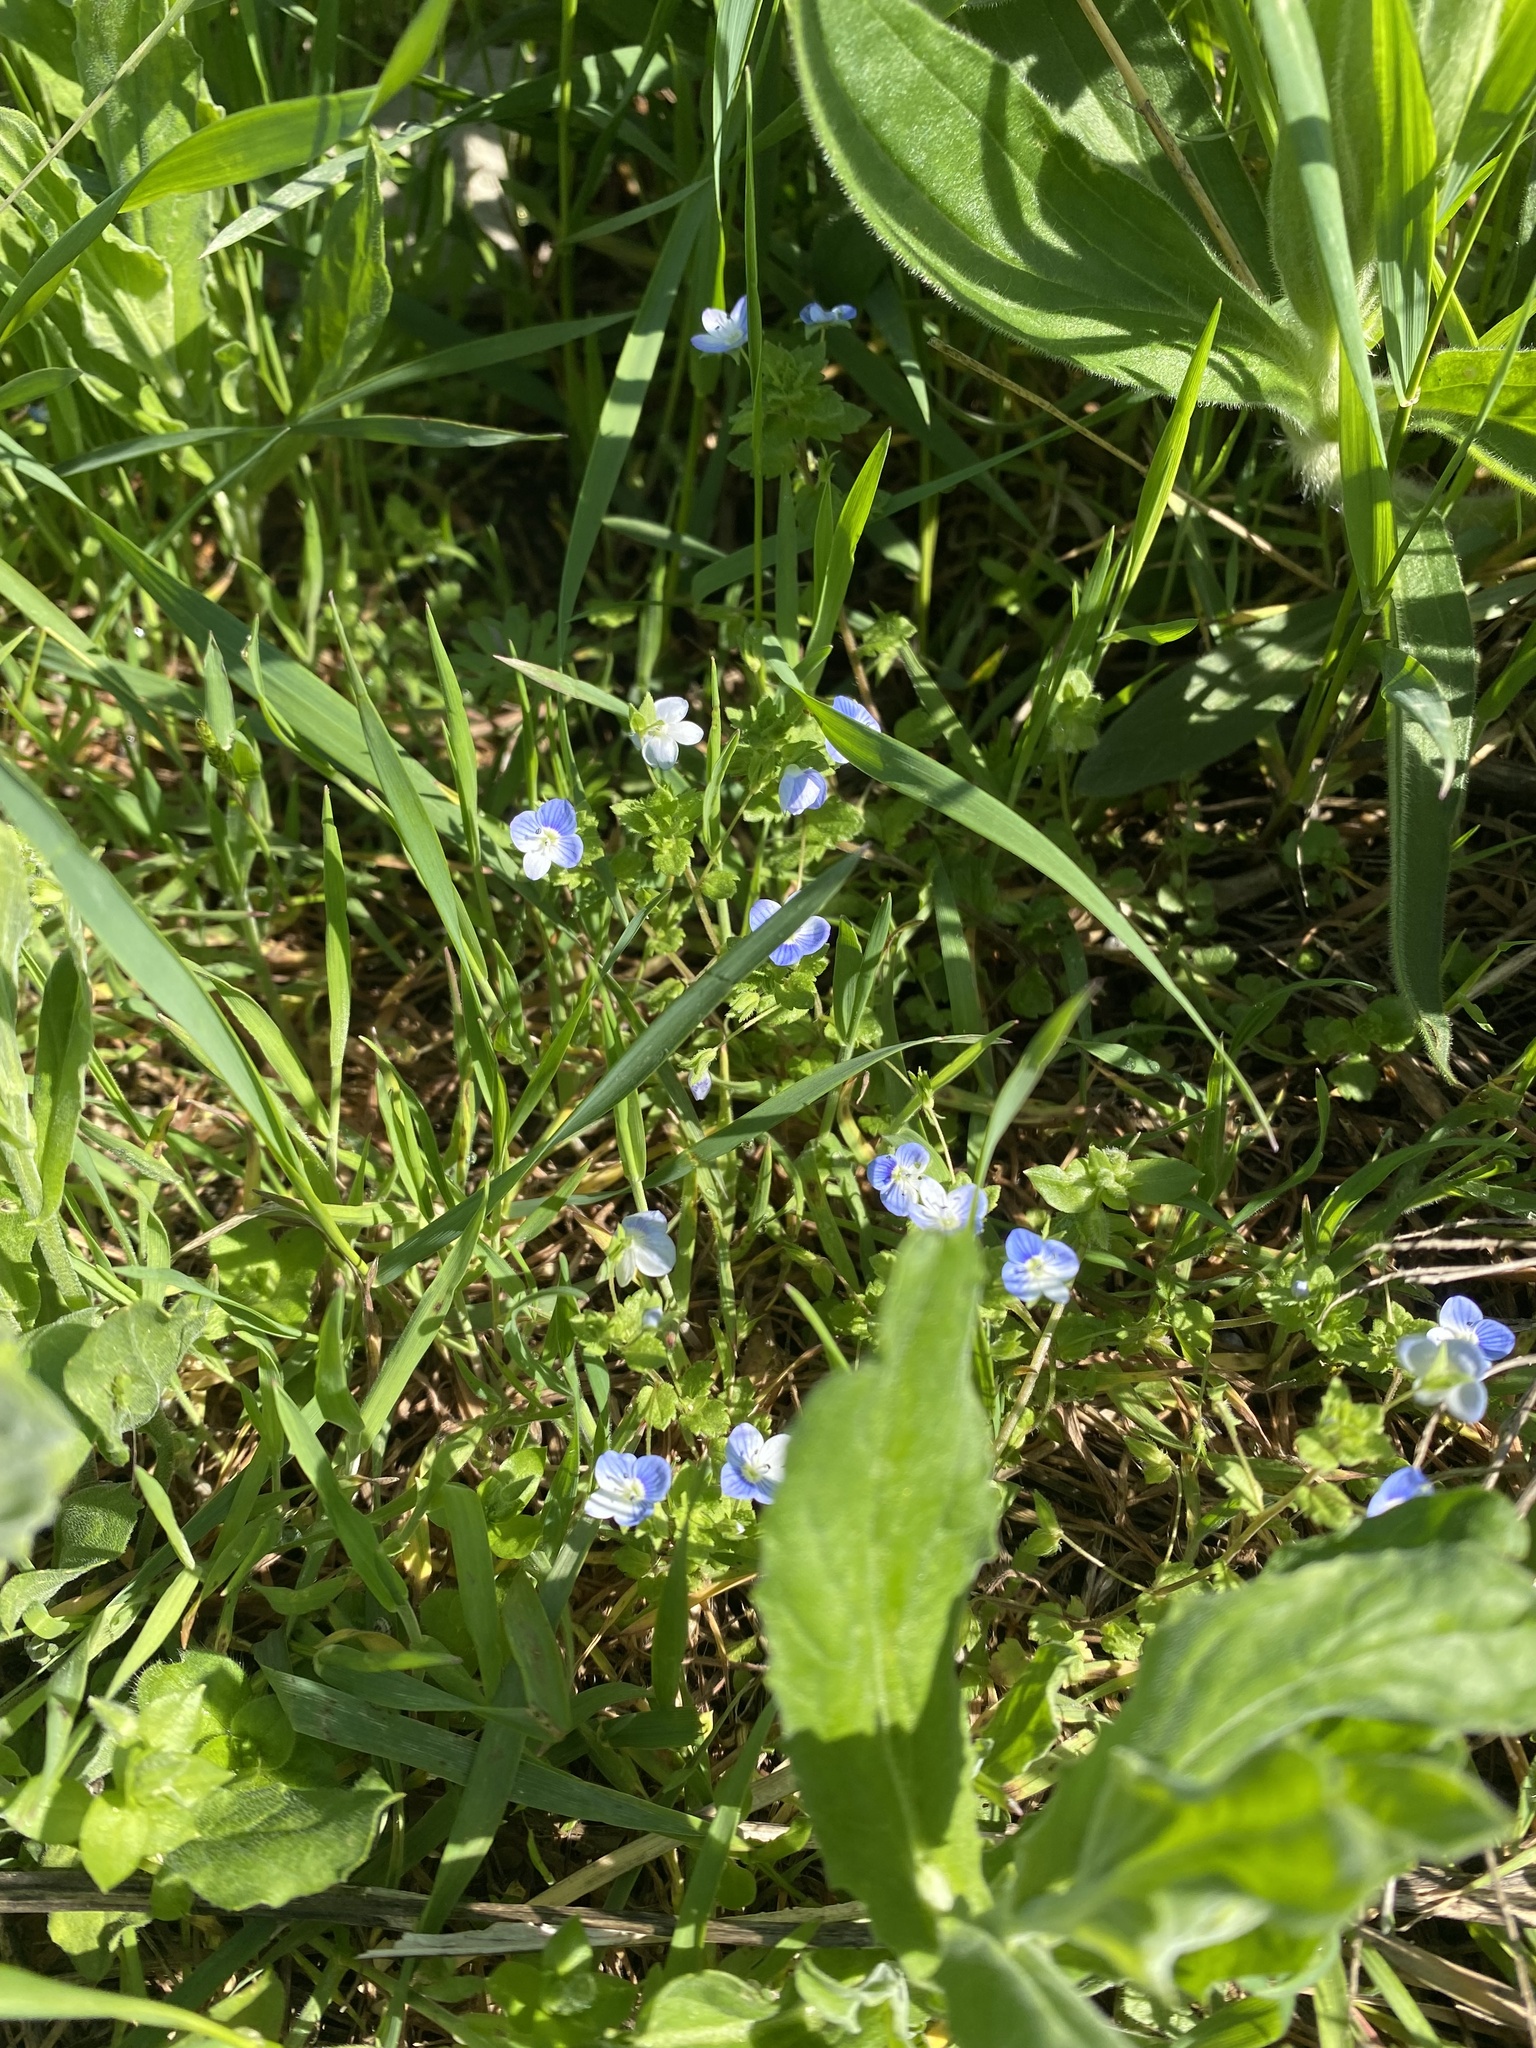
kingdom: Plantae
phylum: Tracheophyta
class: Magnoliopsida
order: Lamiales
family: Plantaginaceae
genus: Veronica
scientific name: Veronica persica
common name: Common field-speedwell
